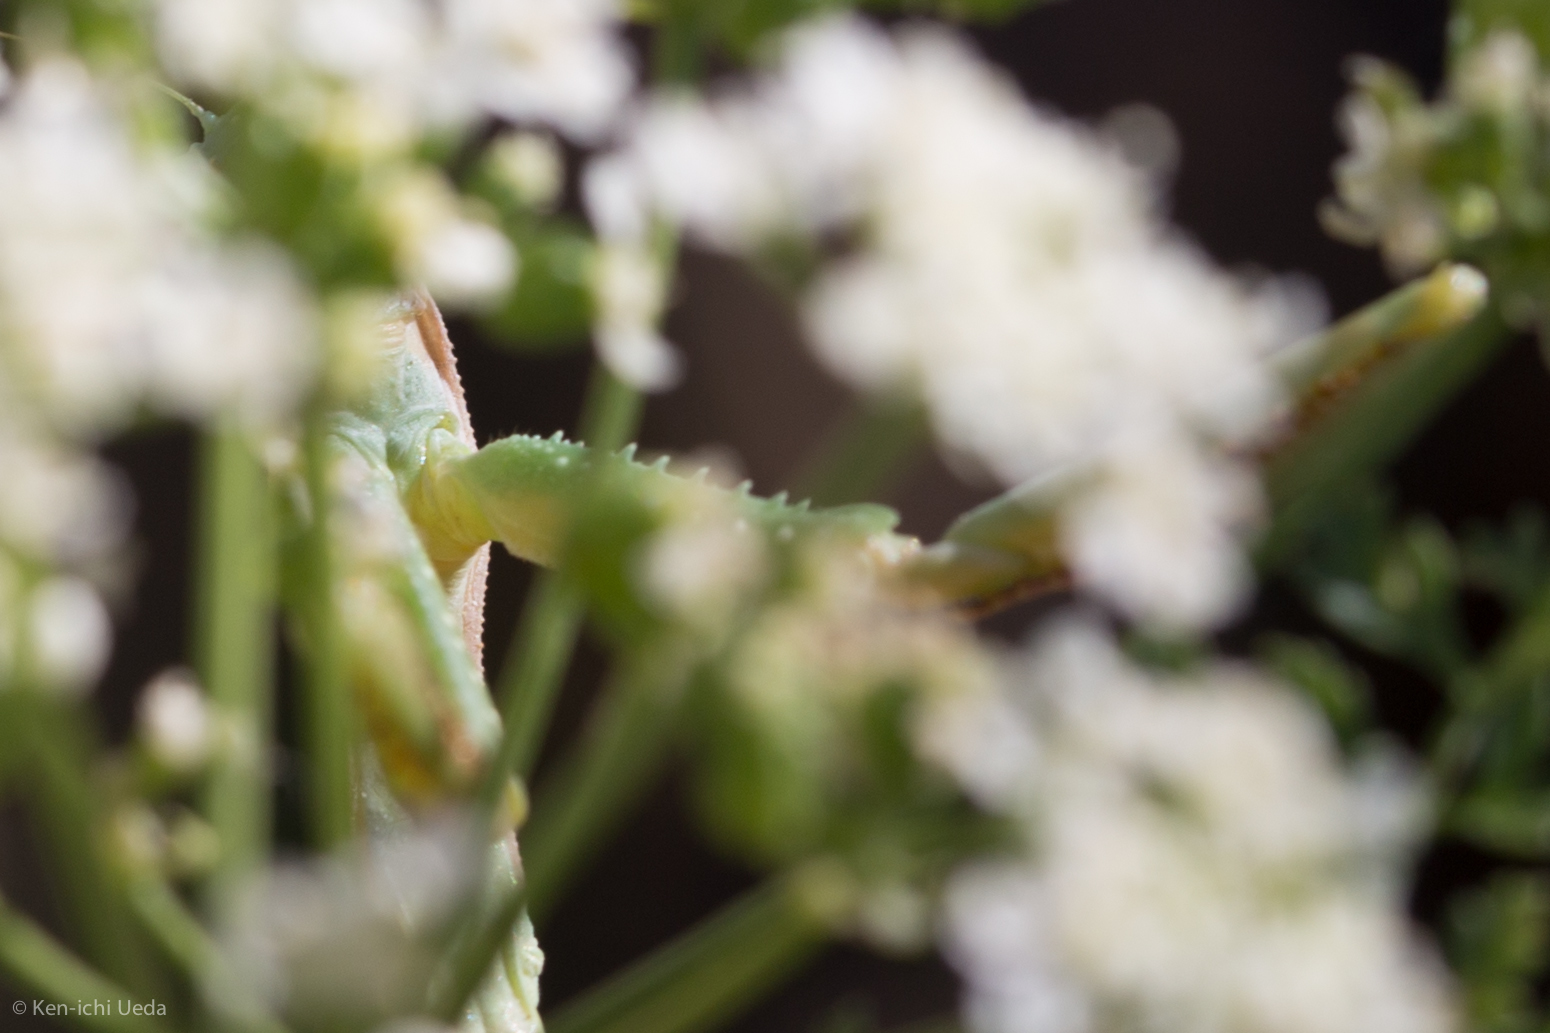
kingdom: Animalia
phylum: Arthropoda
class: Insecta
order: Mantodea
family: Eremiaphilidae
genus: Iris
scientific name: Iris oratoria
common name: Mediterranean mantis
